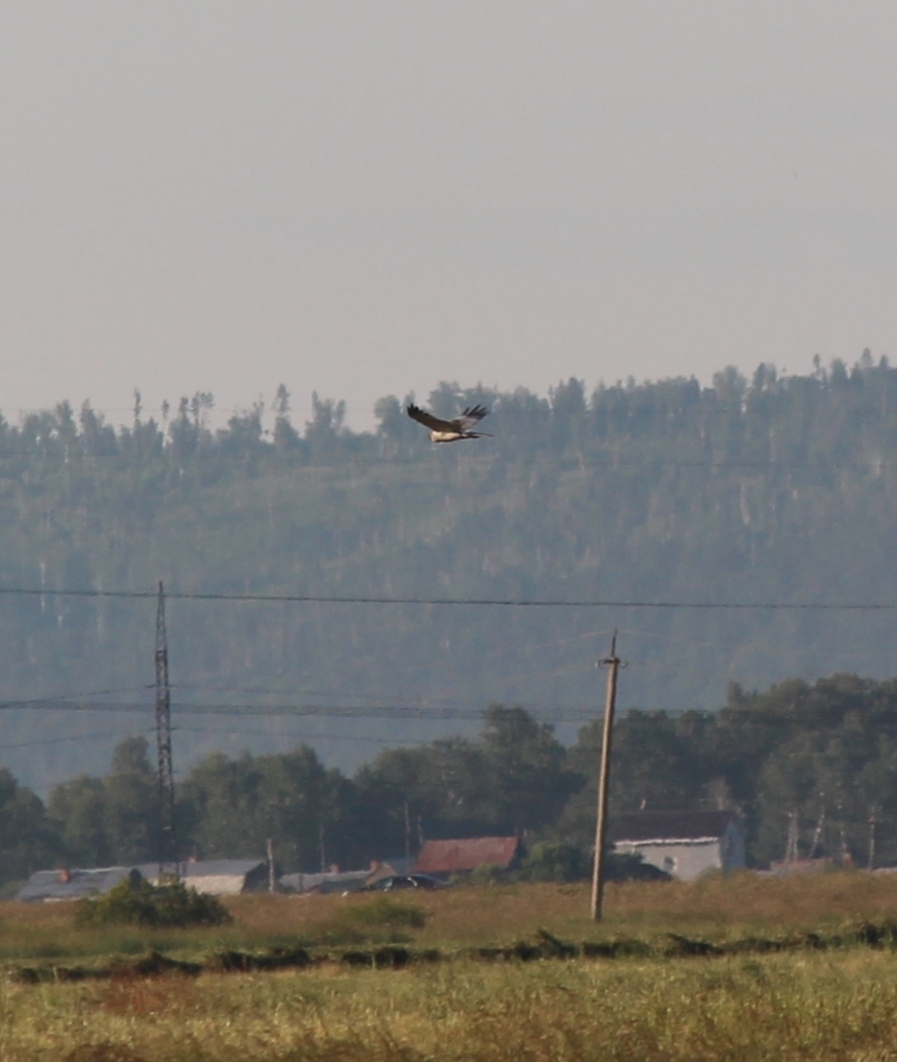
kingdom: Animalia
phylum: Chordata
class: Aves
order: Accipitriformes
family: Accipitridae
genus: Circus
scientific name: Circus spilonotus
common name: Eastern marsh-harrier
